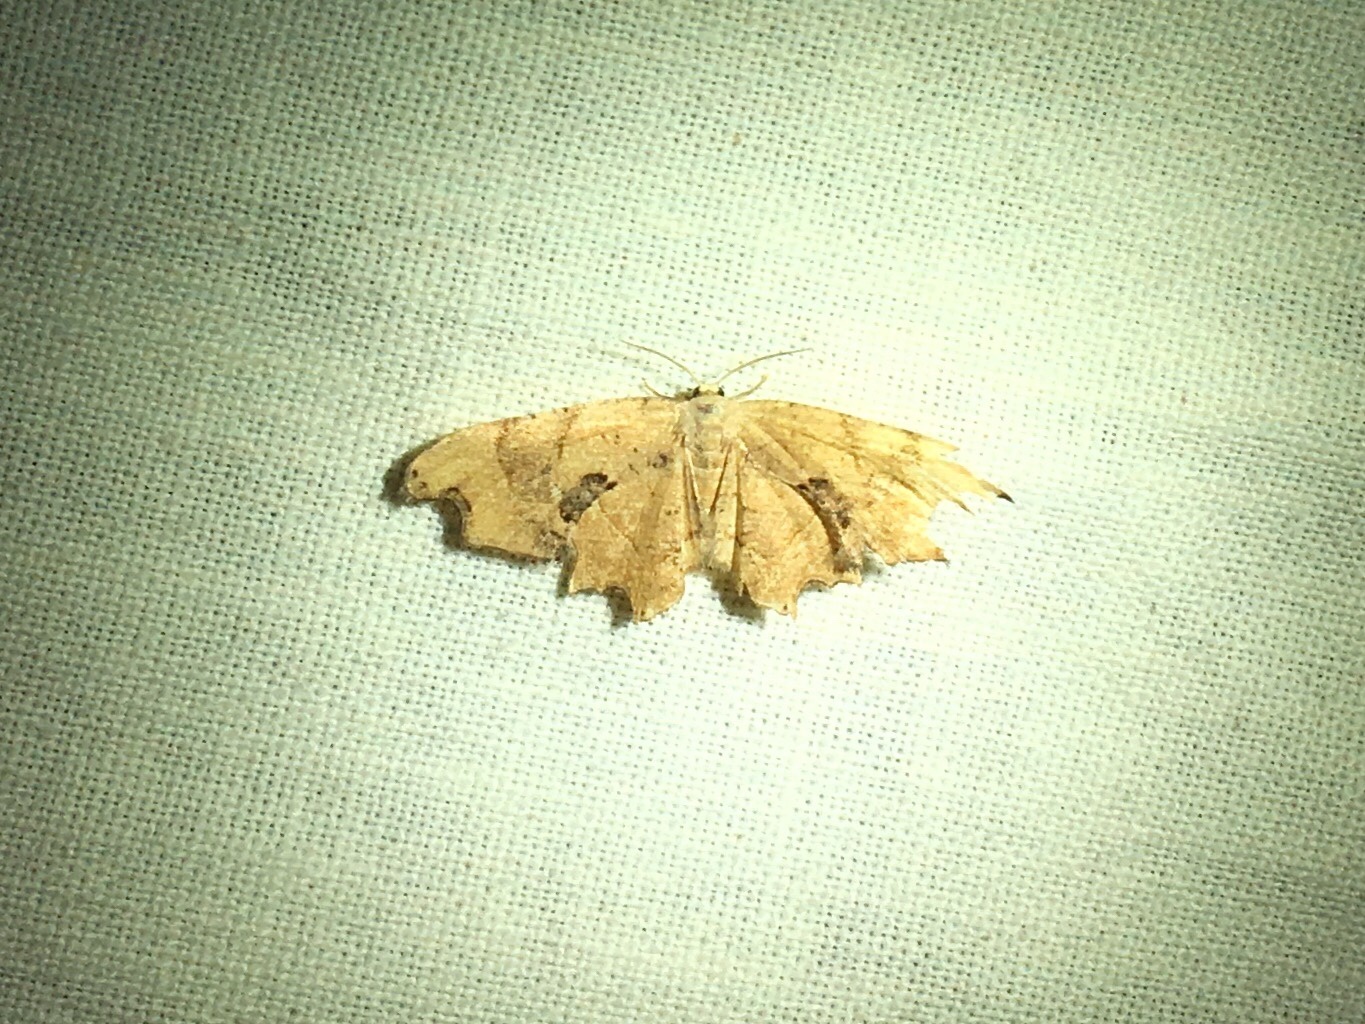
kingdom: Animalia
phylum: Arthropoda
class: Insecta
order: Lepidoptera
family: Uraniidae
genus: Epiplema
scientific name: Epiplema Calledapteryx dryopterata
